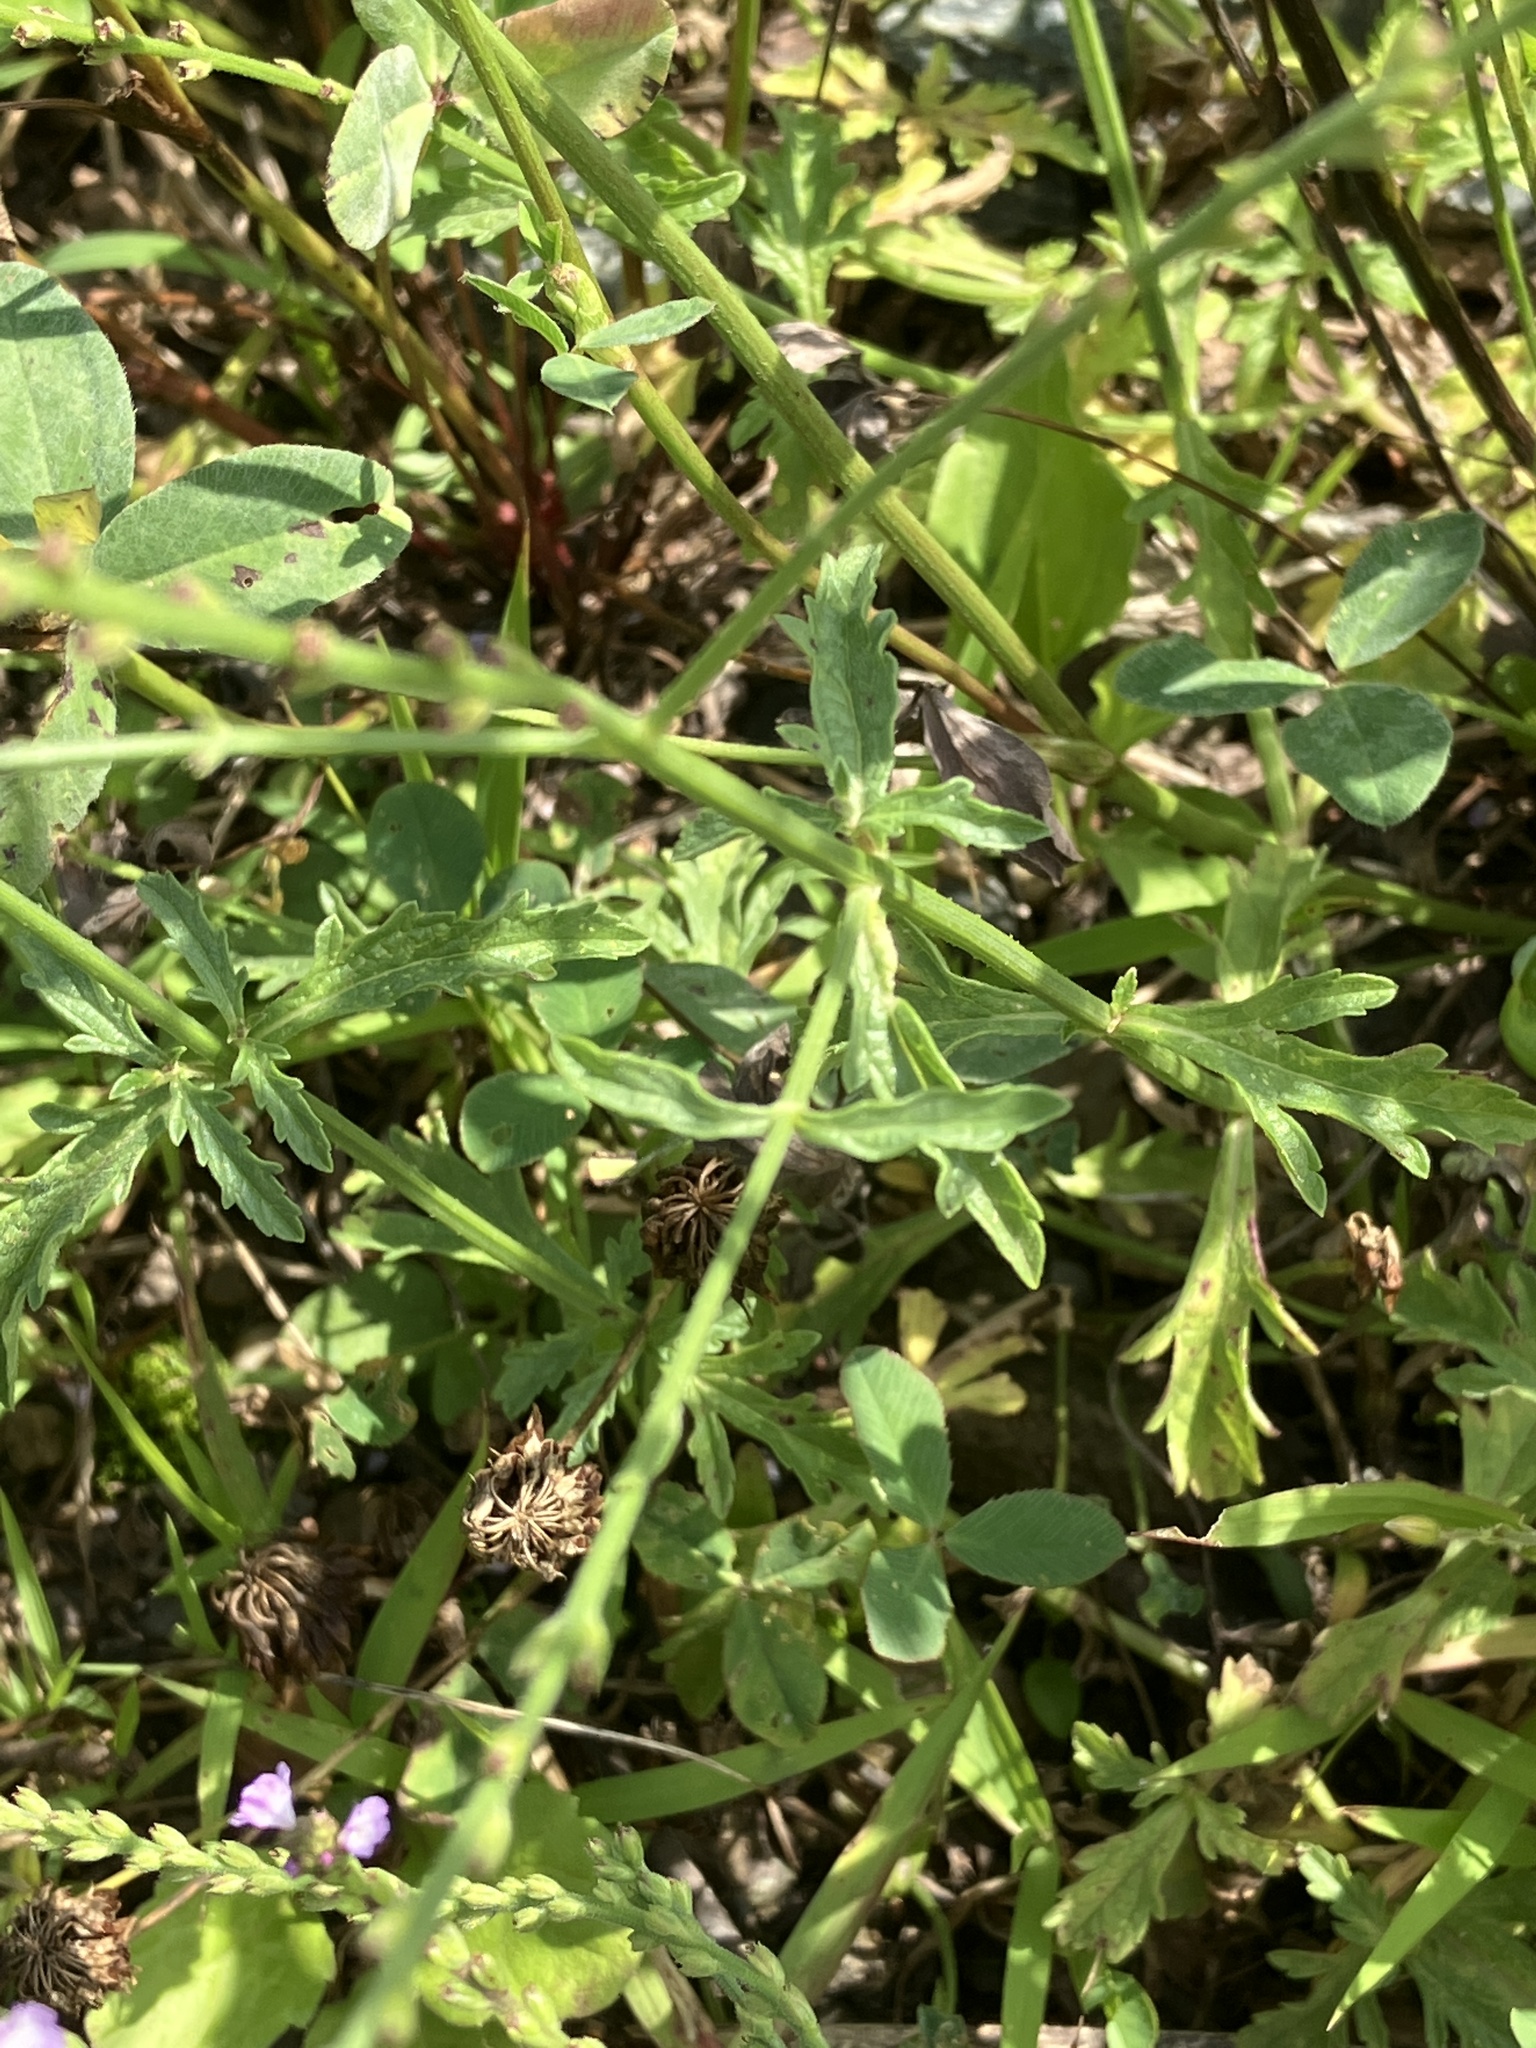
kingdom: Plantae
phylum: Tracheophyta
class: Magnoliopsida
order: Lamiales
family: Verbenaceae
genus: Verbena
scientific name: Verbena officinalis
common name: Vervain
